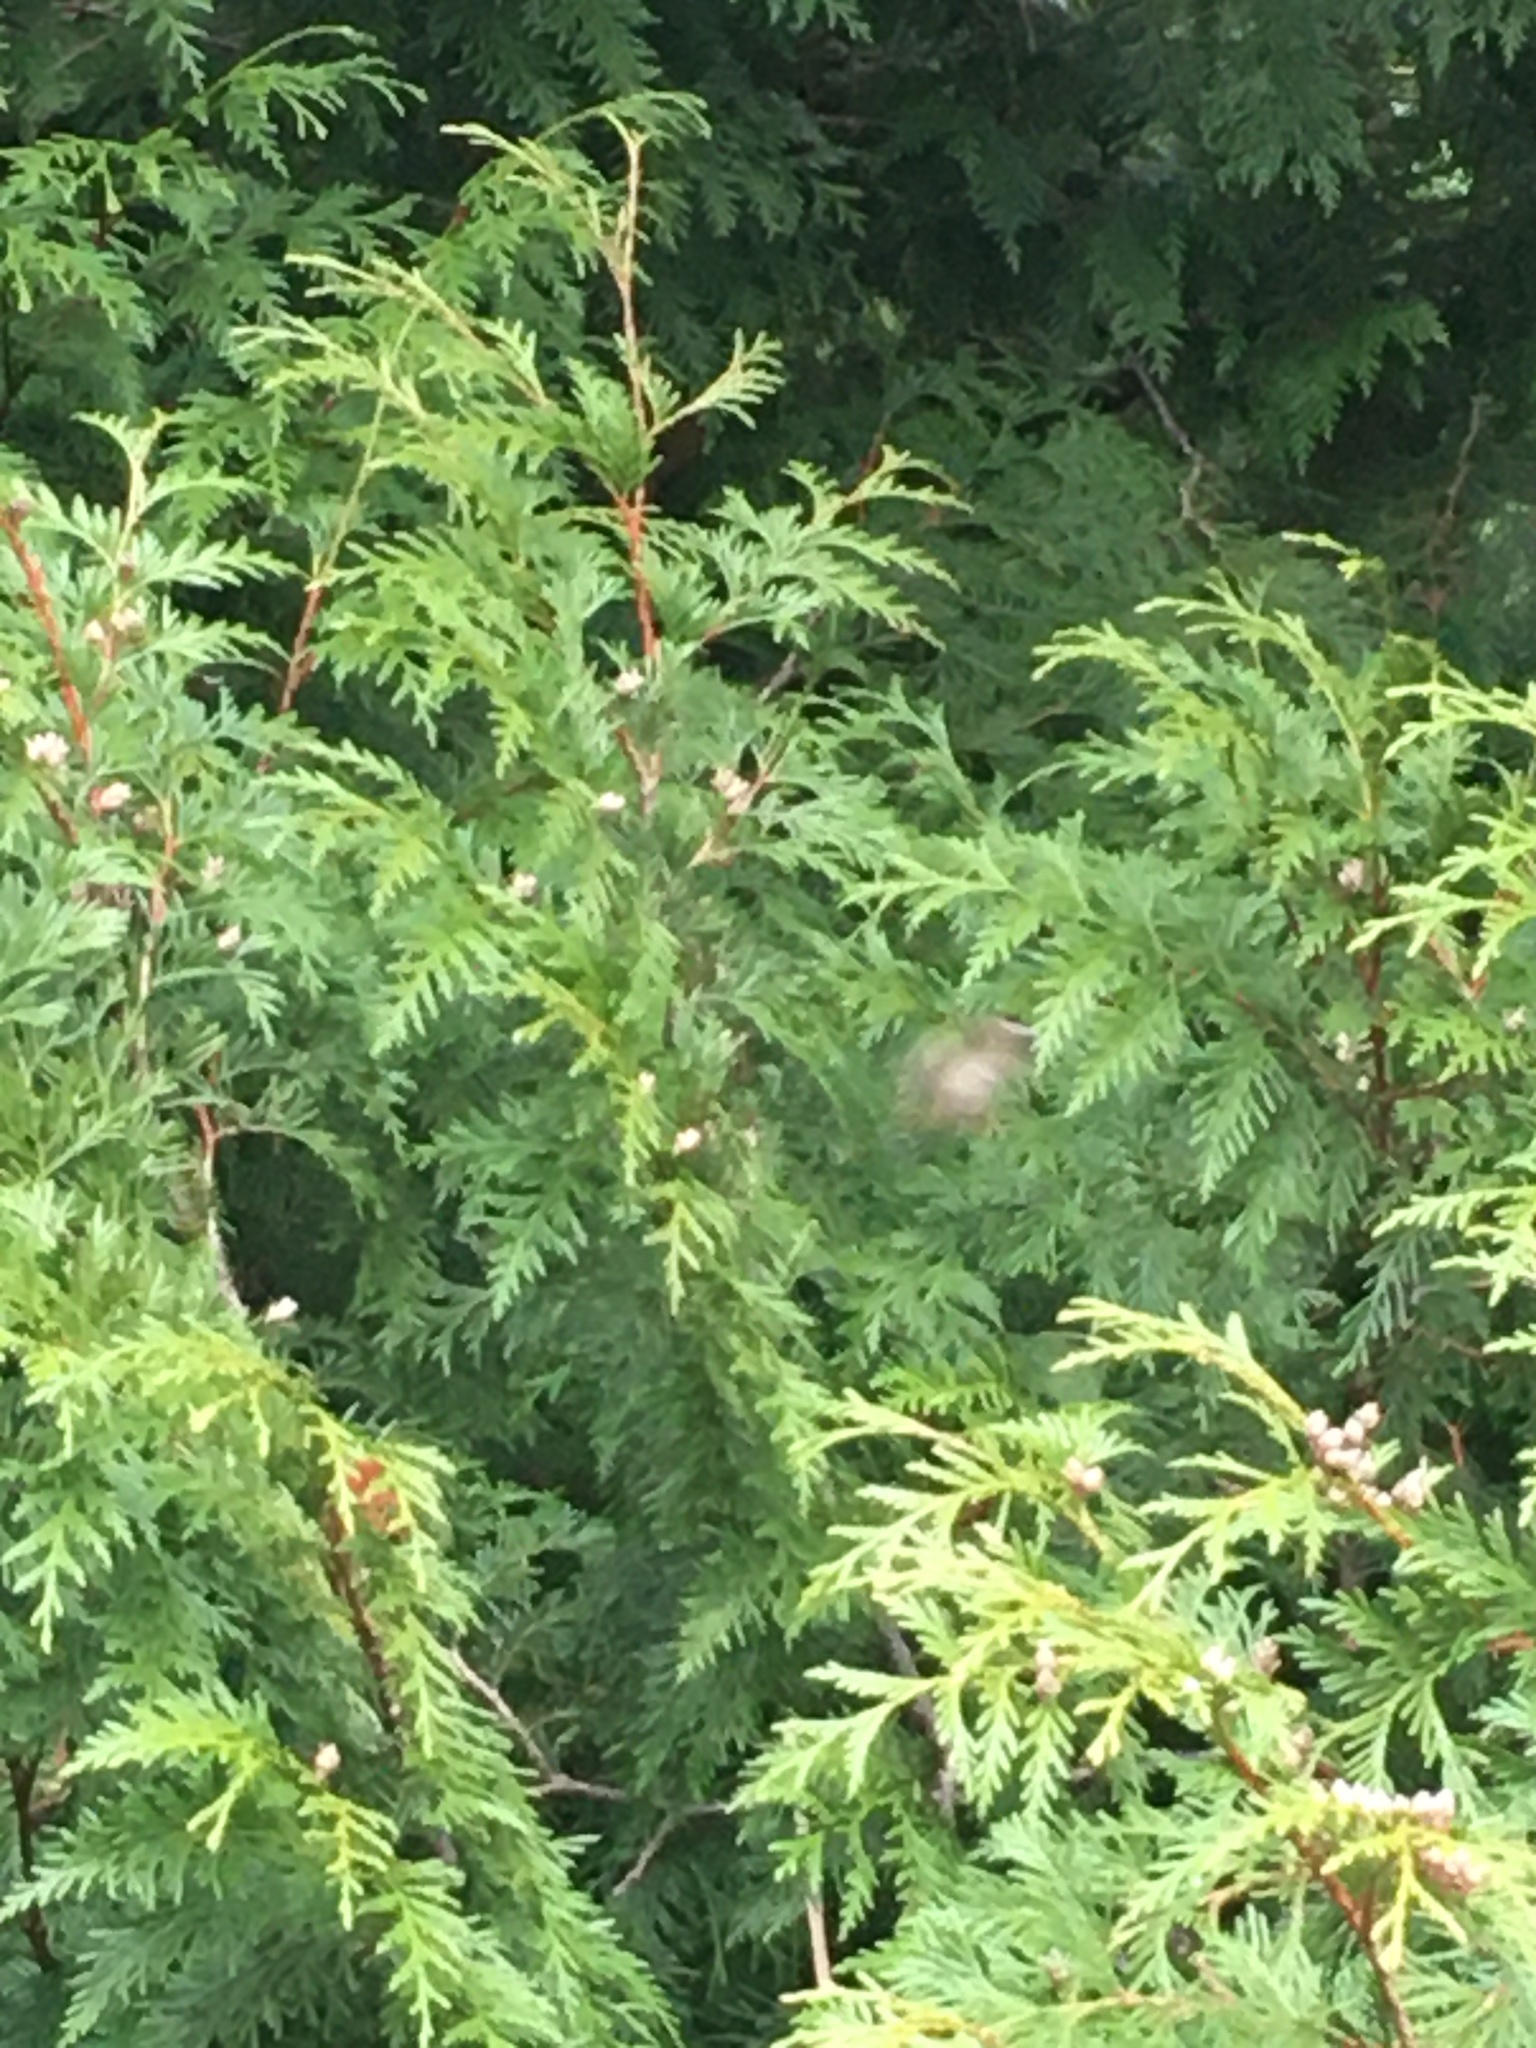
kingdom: Animalia
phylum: Chordata
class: Aves
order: Passeriformes
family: Regulidae
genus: Regulus
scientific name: Regulus satrapa
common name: Golden-crowned kinglet
